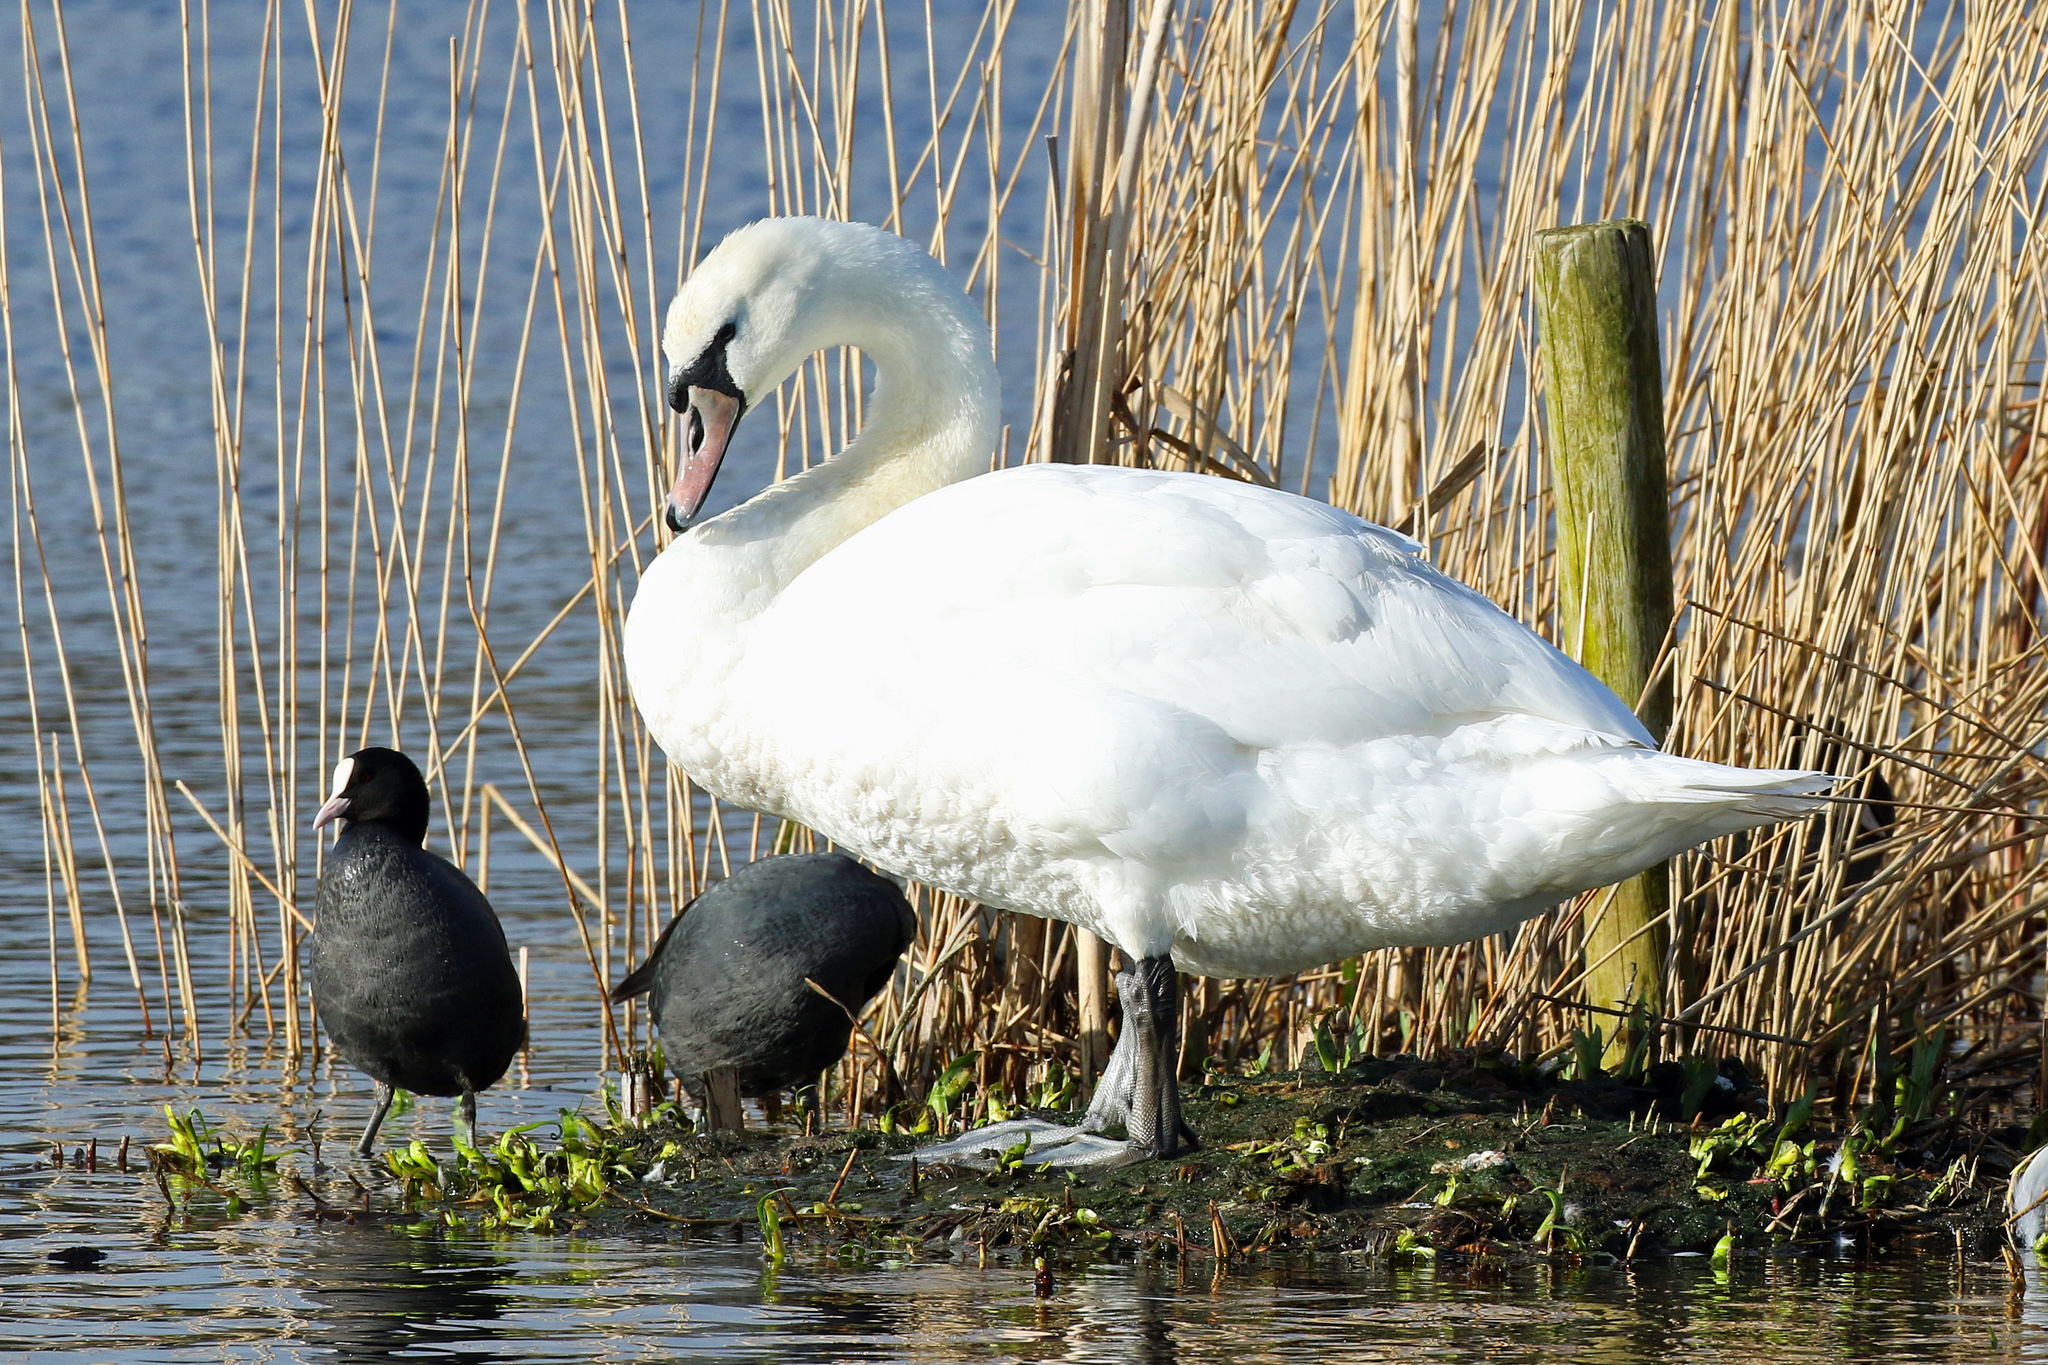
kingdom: Animalia
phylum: Chordata
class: Aves
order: Anseriformes
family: Anatidae
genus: Cygnus
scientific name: Cygnus olor
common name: Mute swan
